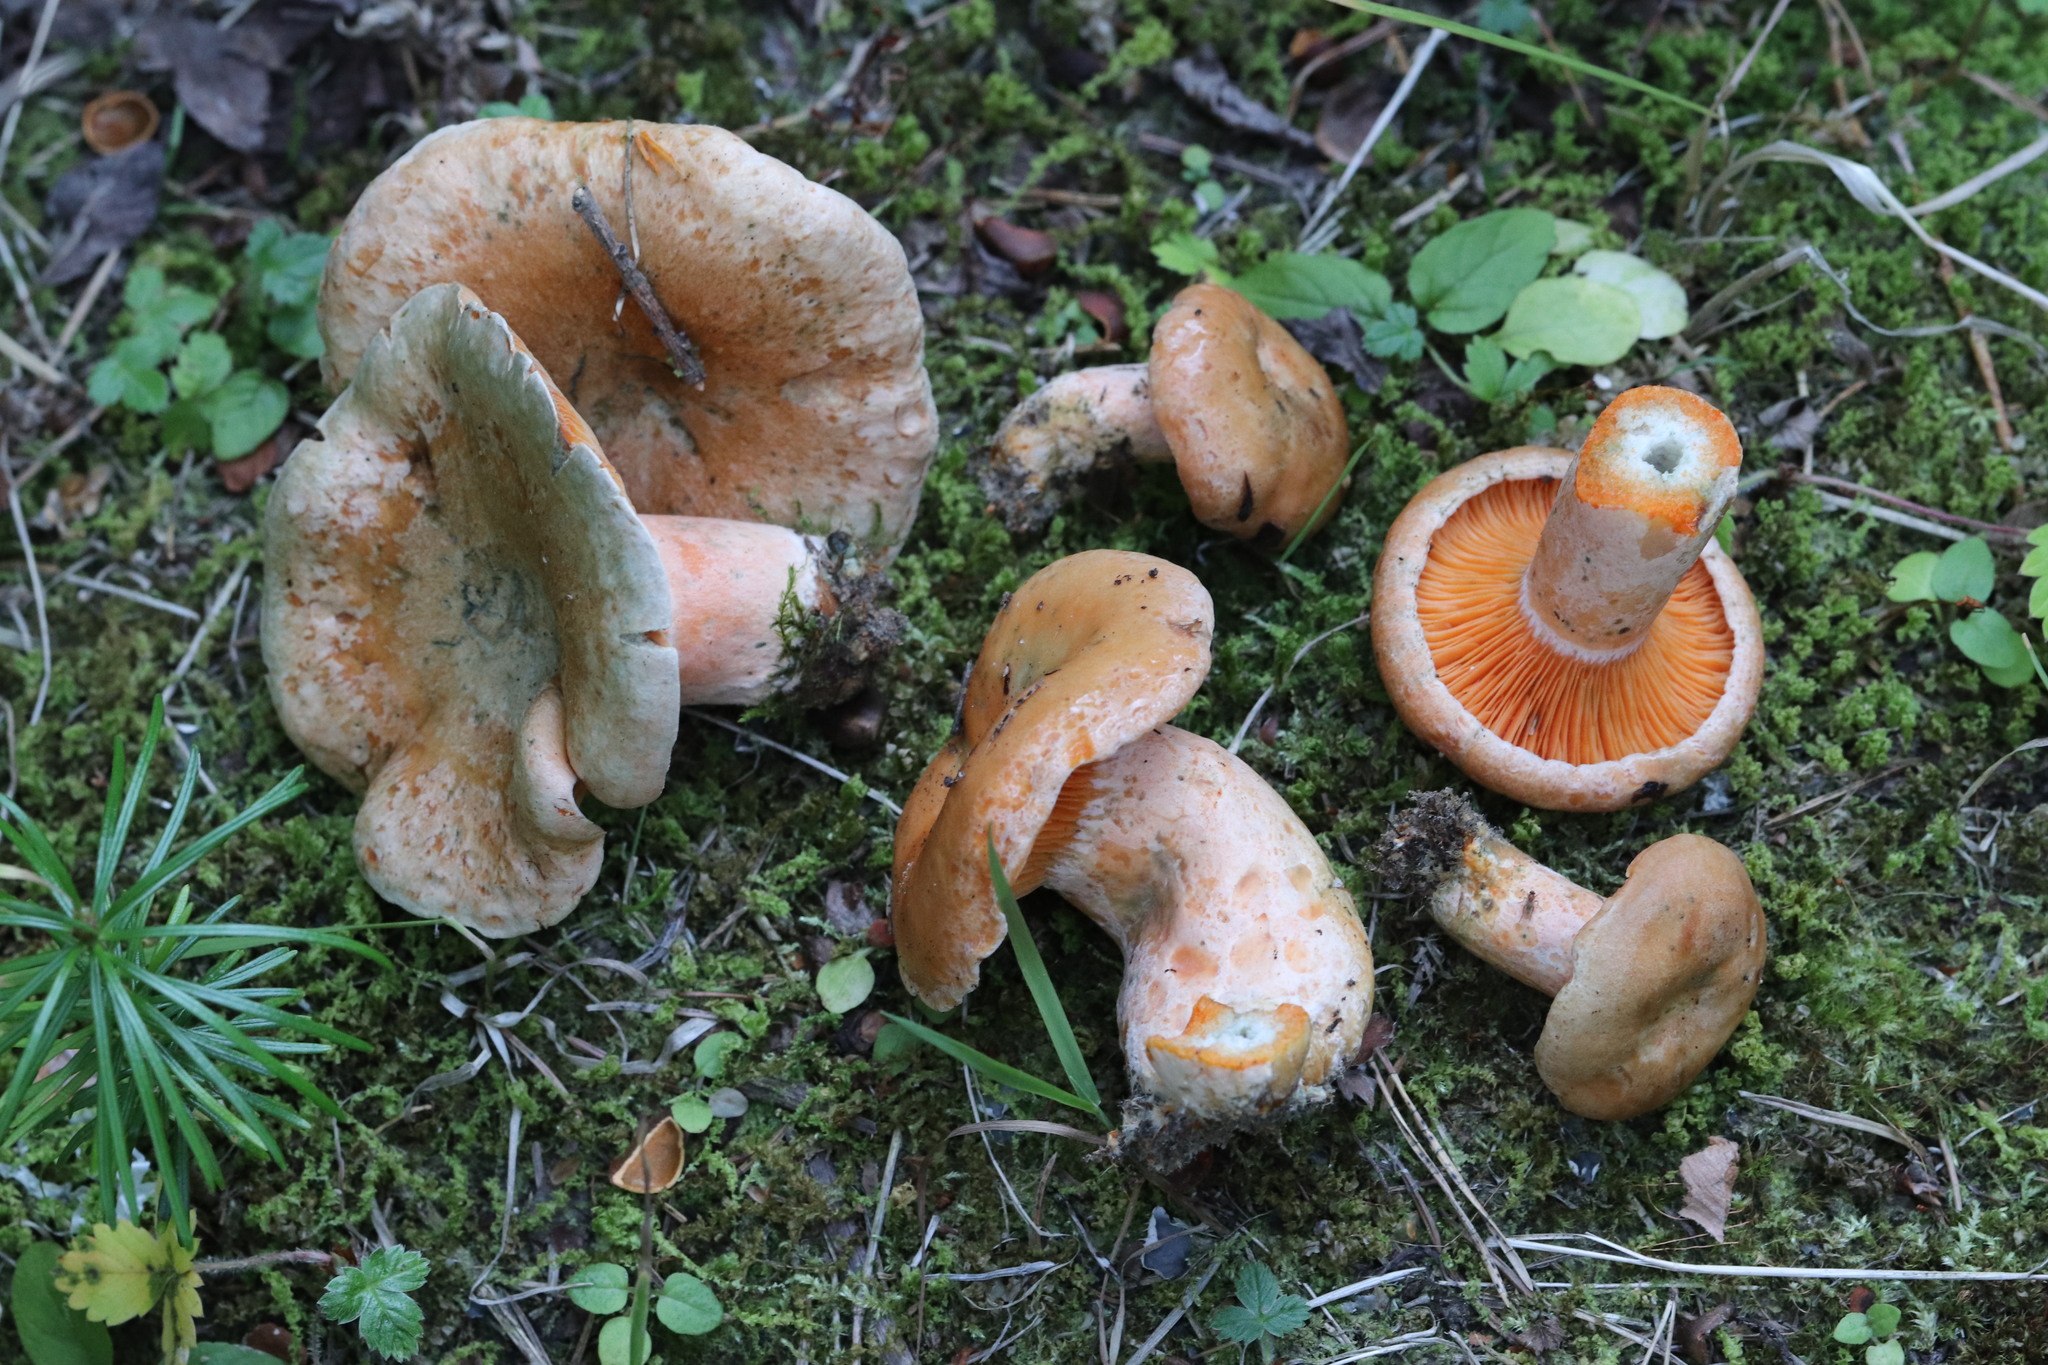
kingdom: Fungi
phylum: Basidiomycota
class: Agaricomycetes
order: Russulales
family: Russulaceae
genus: Lactarius
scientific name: Lactarius deliciosus
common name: Saffron milk-cap
